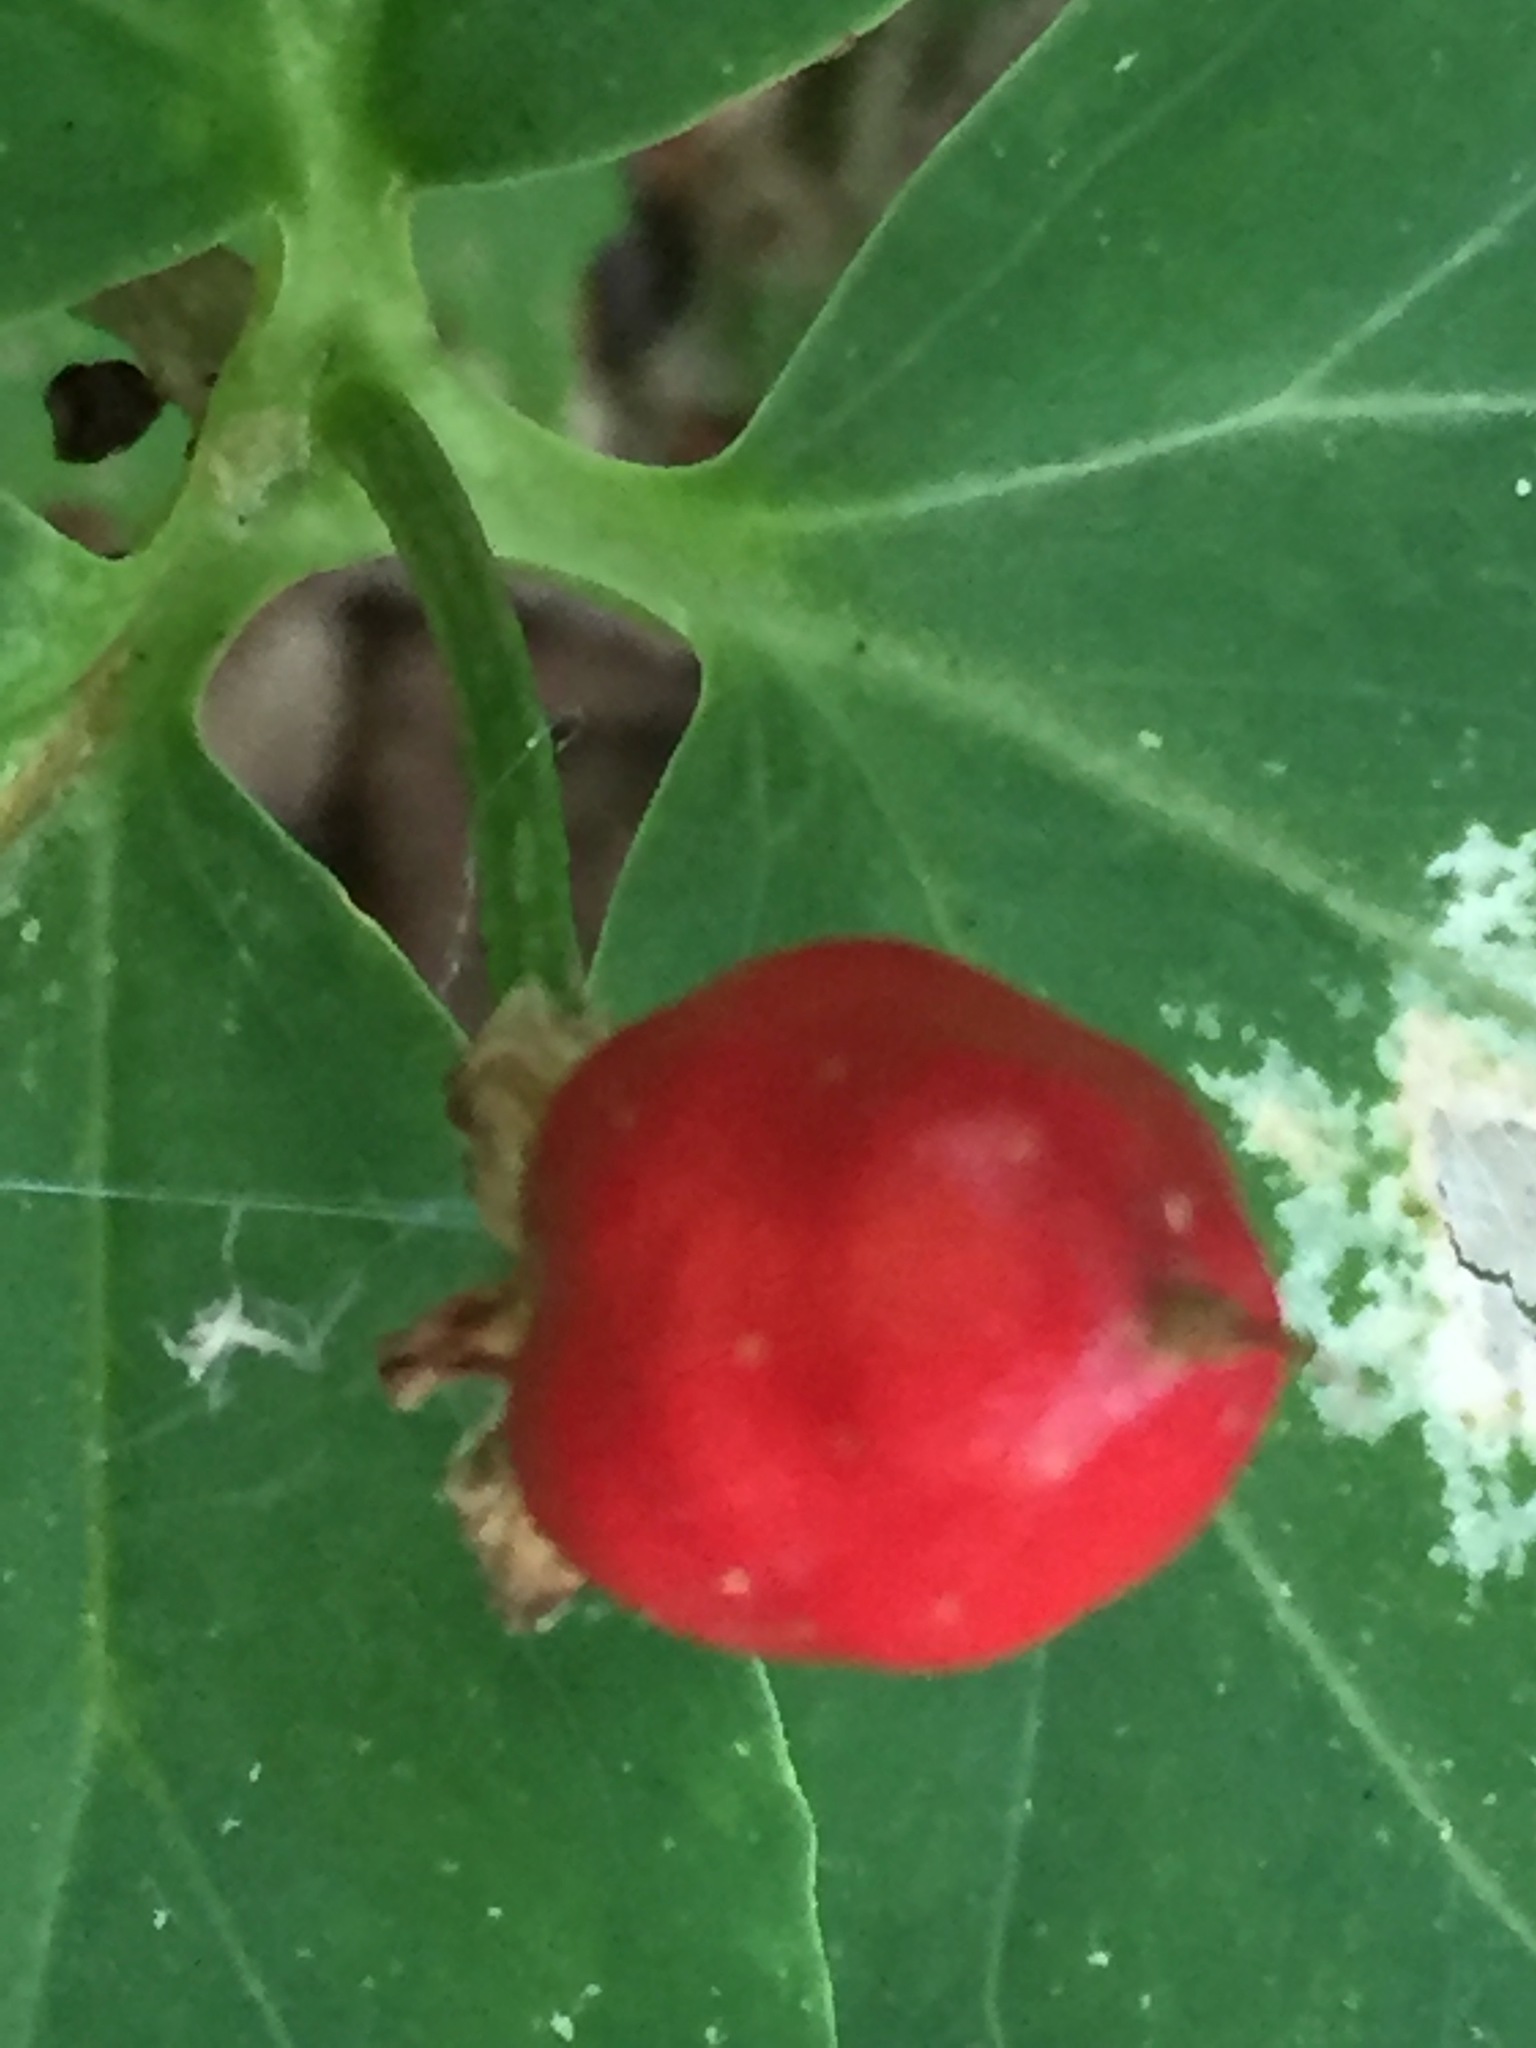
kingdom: Plantae
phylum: Tracheophyta
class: Liliopsida
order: Liliales
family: Melanthiaceae
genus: Trillium
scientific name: Trillium undulatum
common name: Paint trillium
